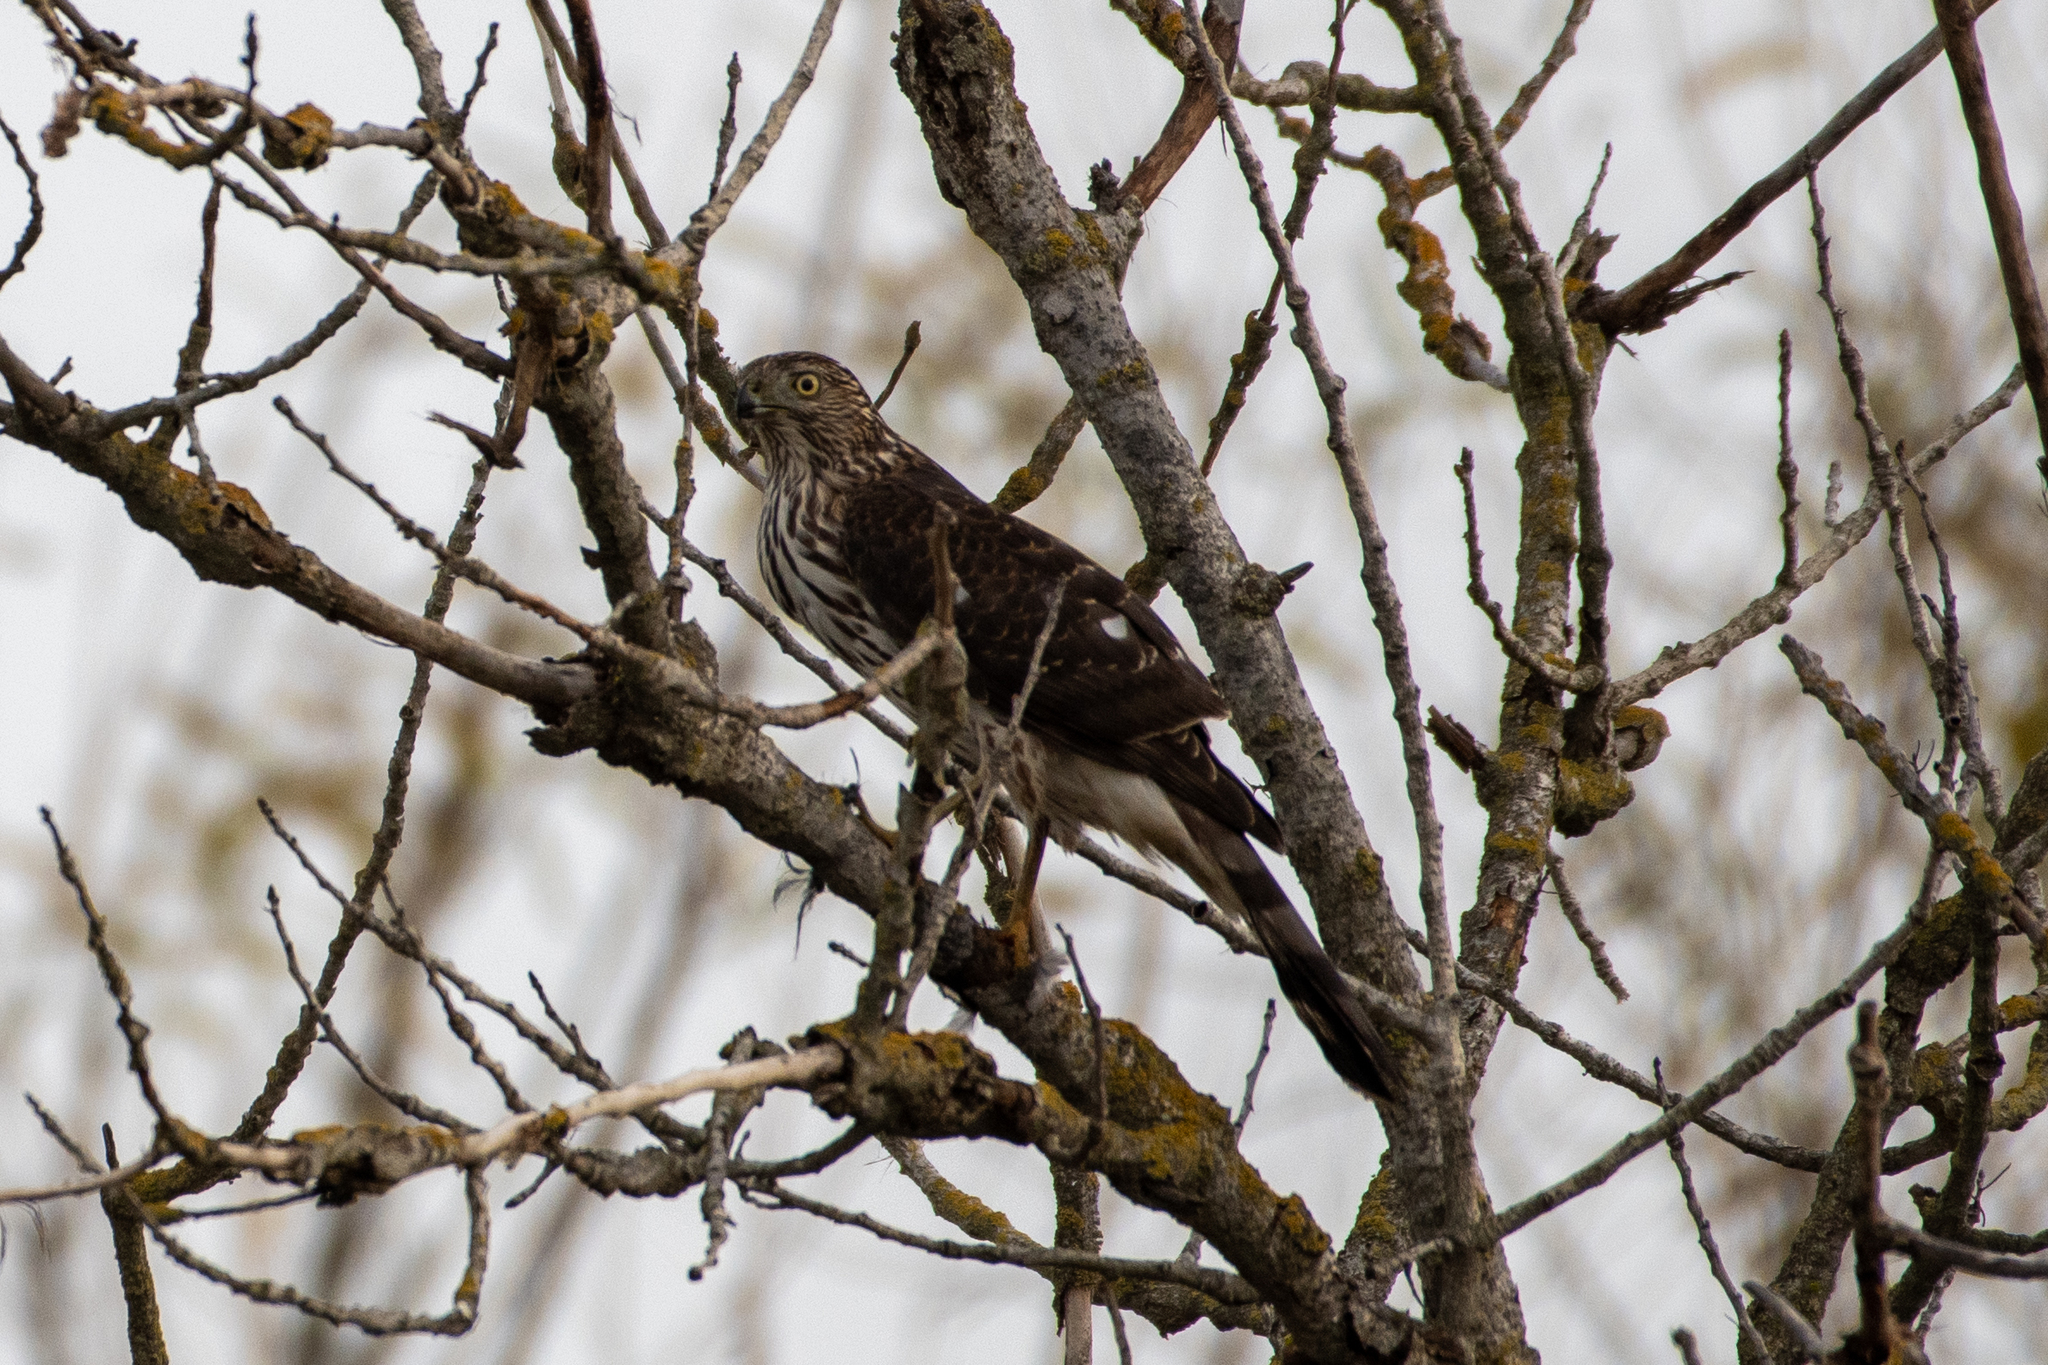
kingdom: Animalia
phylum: Chordata
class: Aves
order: Accipitriformes
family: Accipitridae
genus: Accipiter
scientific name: Accipiter cooperii
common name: Cooper's hawk
